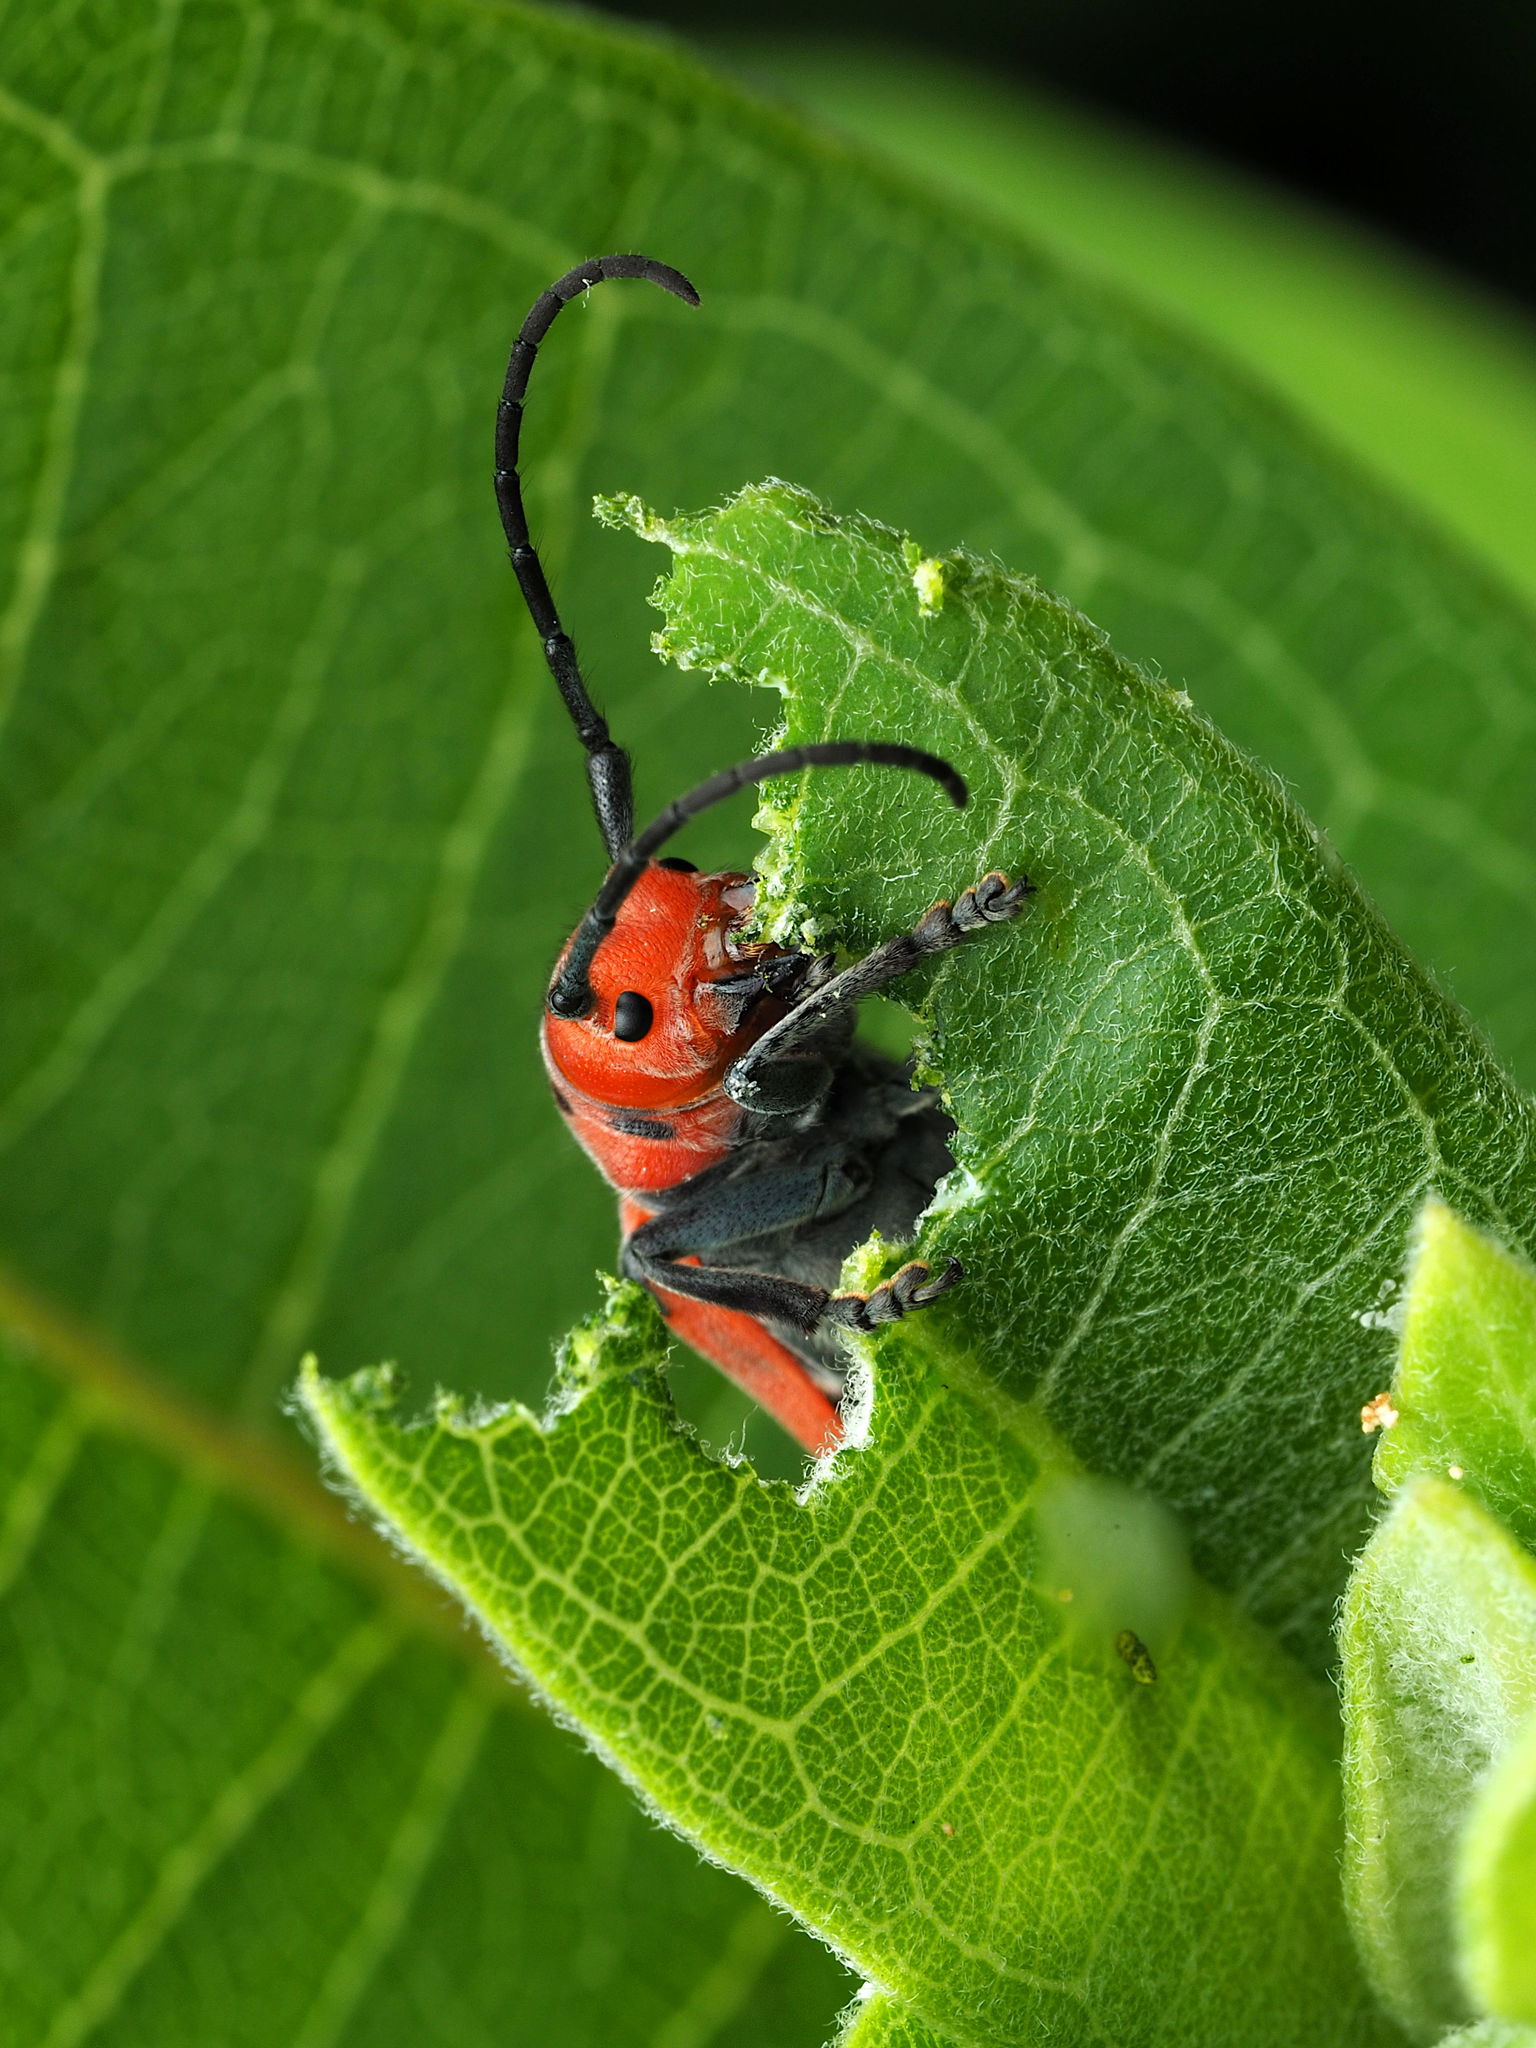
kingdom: Animalia
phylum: Arthropoda
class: Insecta
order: Coleoptera
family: Cerambycidae
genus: Tetraopes
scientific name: Tetraopes tetrophthalmus
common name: Red milkweed beetle
